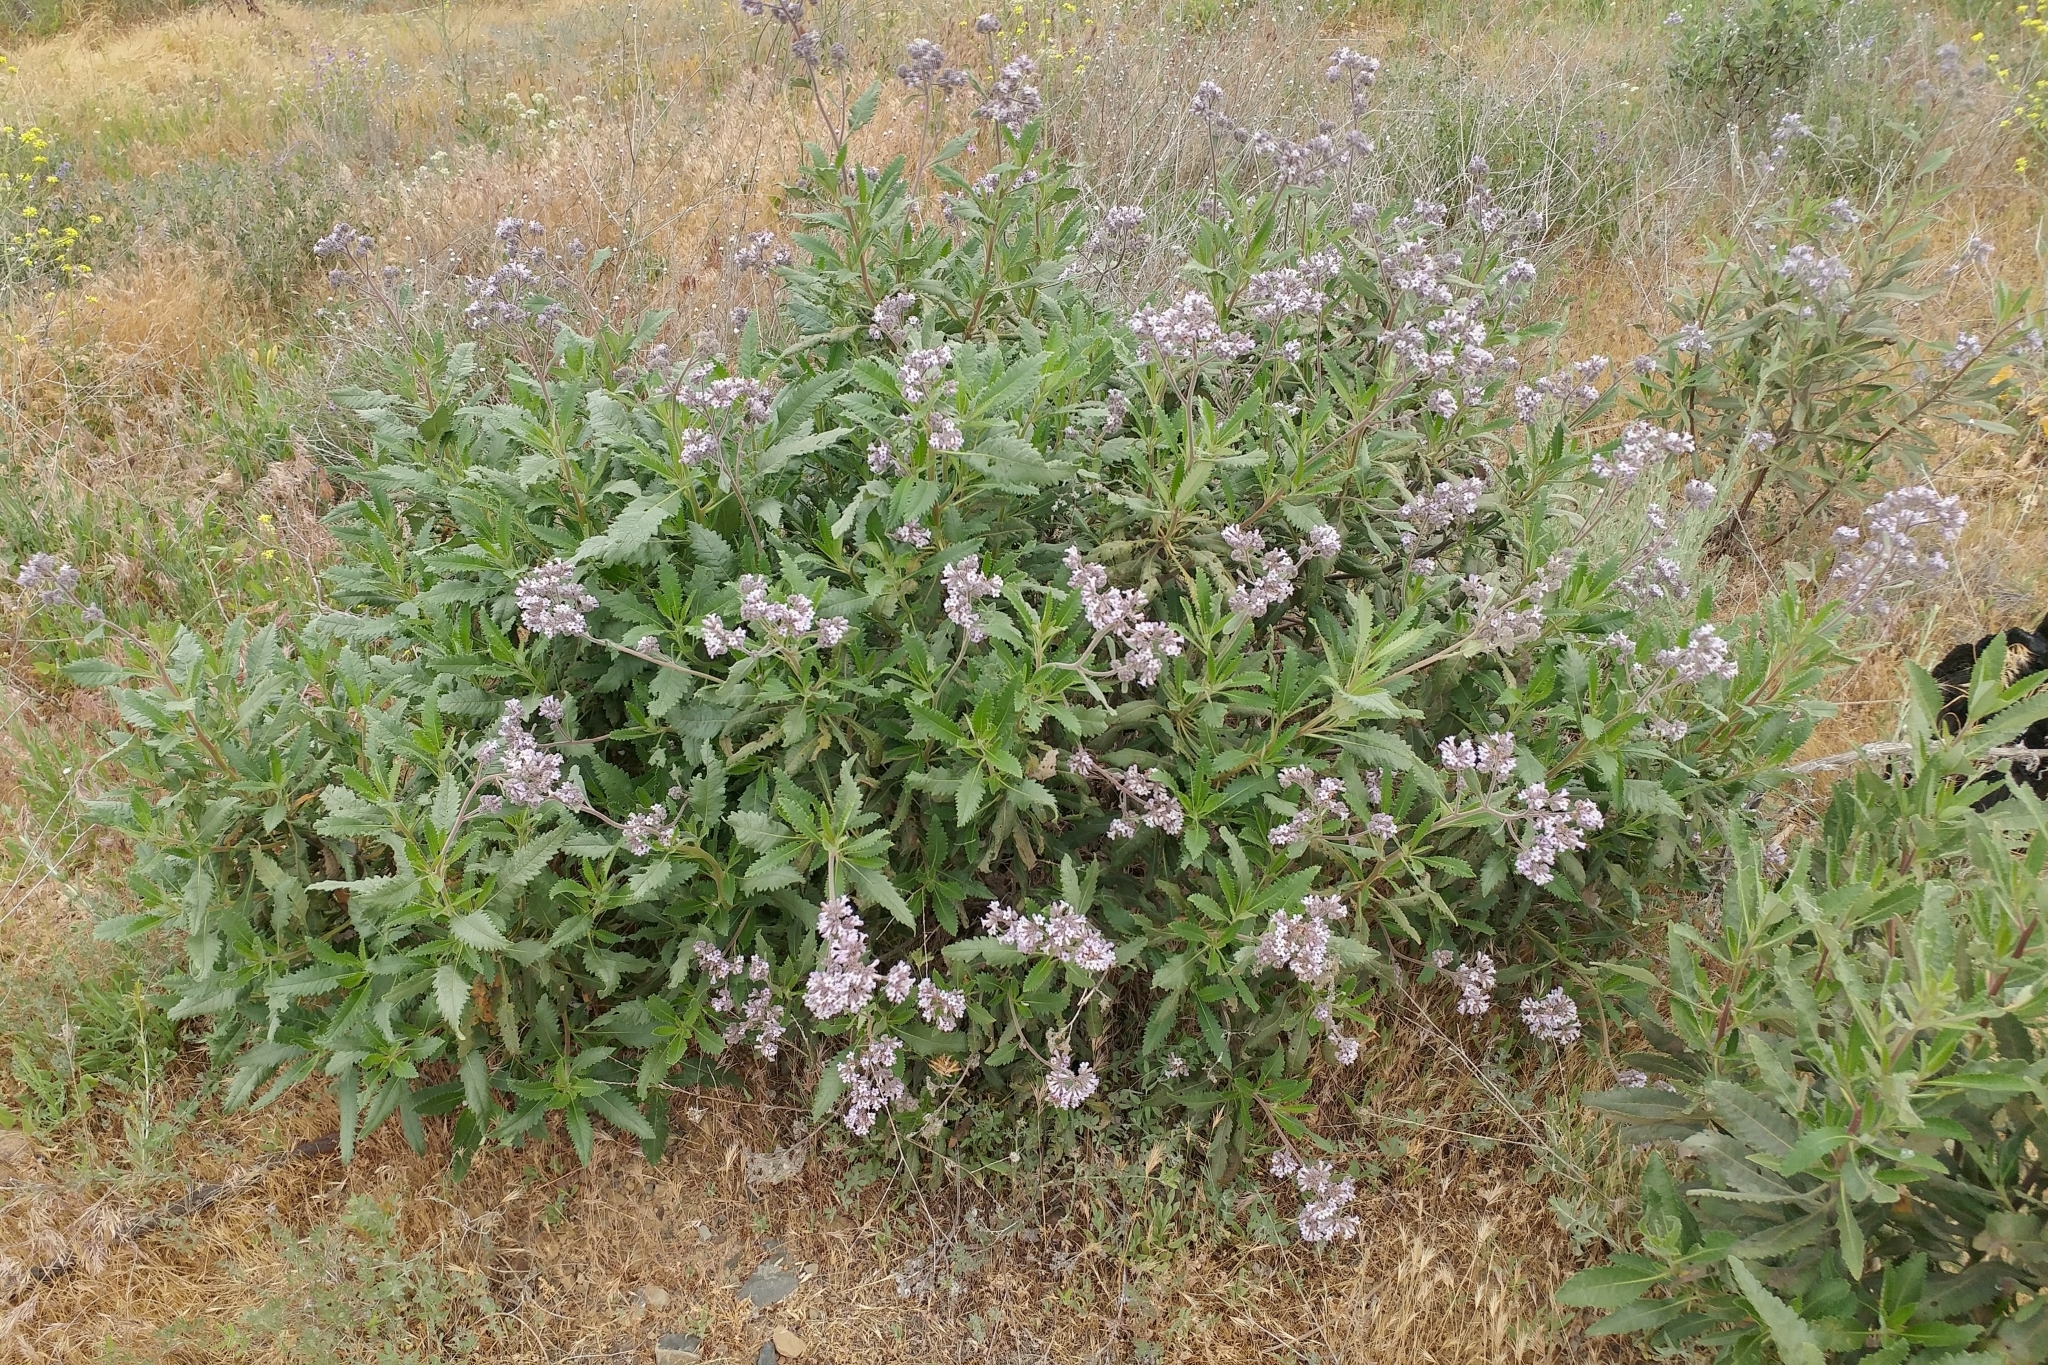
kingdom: Plantae
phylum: Tracheophyta
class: Magnoliopsida
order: Boraginales
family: Namaceae
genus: Eriodictyon
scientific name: Eriodictyon crassifolium
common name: Thick-leaf yerba-santa
